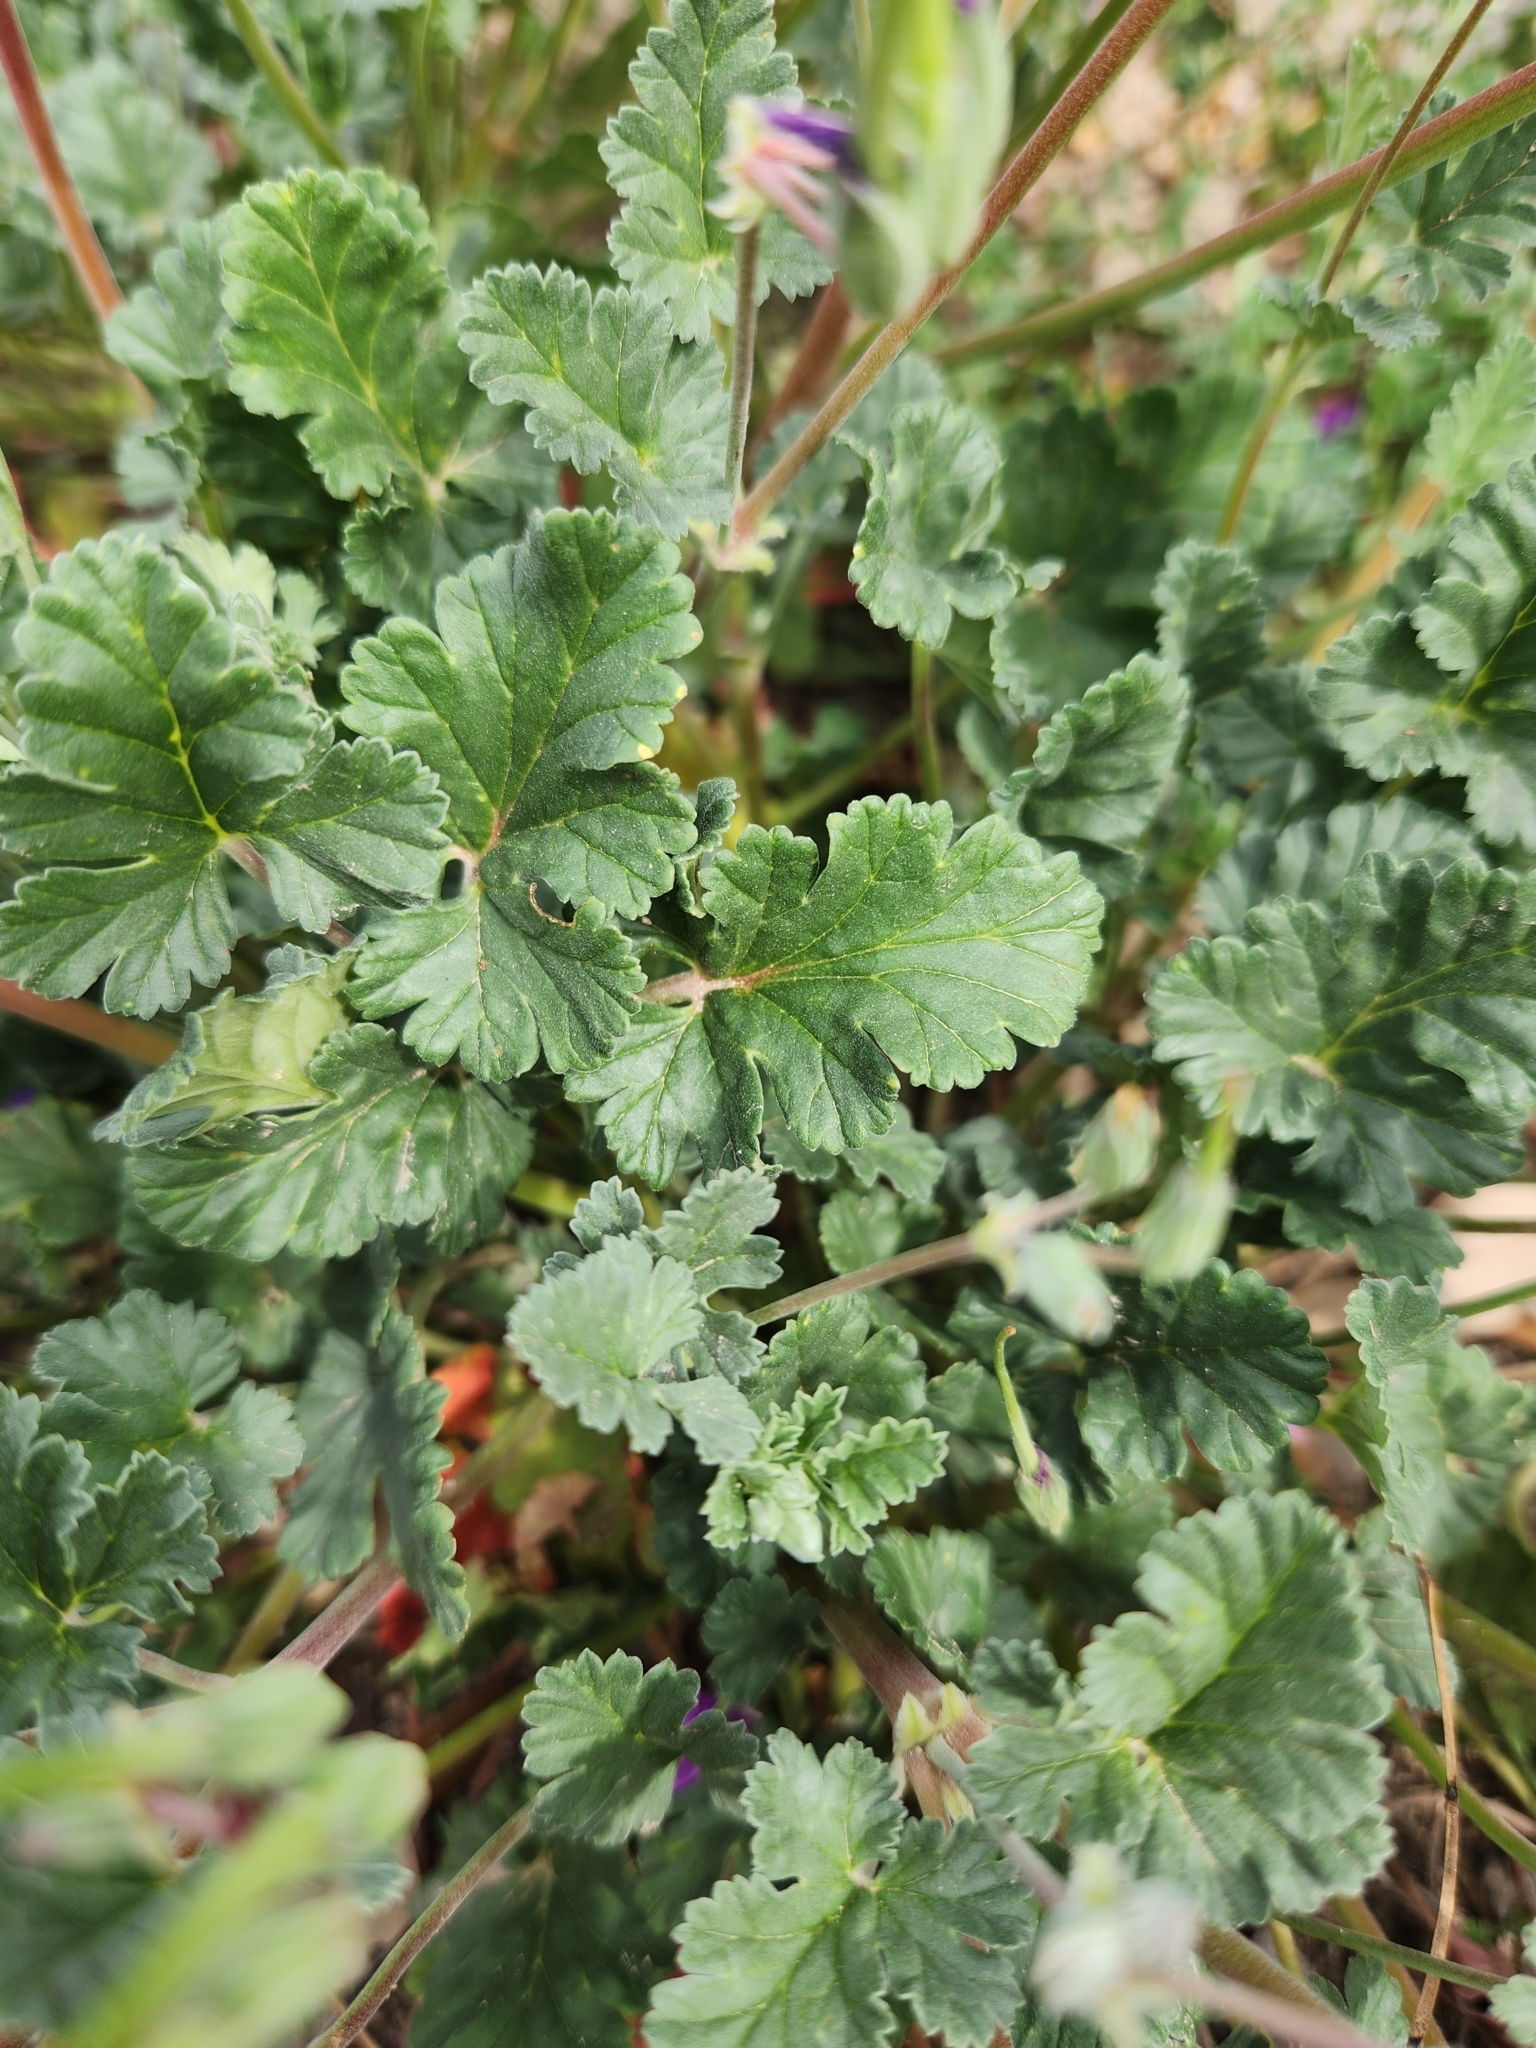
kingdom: Plantae
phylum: Tracheophyta
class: Magnoliopsida
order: Geraniales
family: Geraniaceae
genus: Erodium
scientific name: Erodium texanum
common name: Texas stork's-bill
